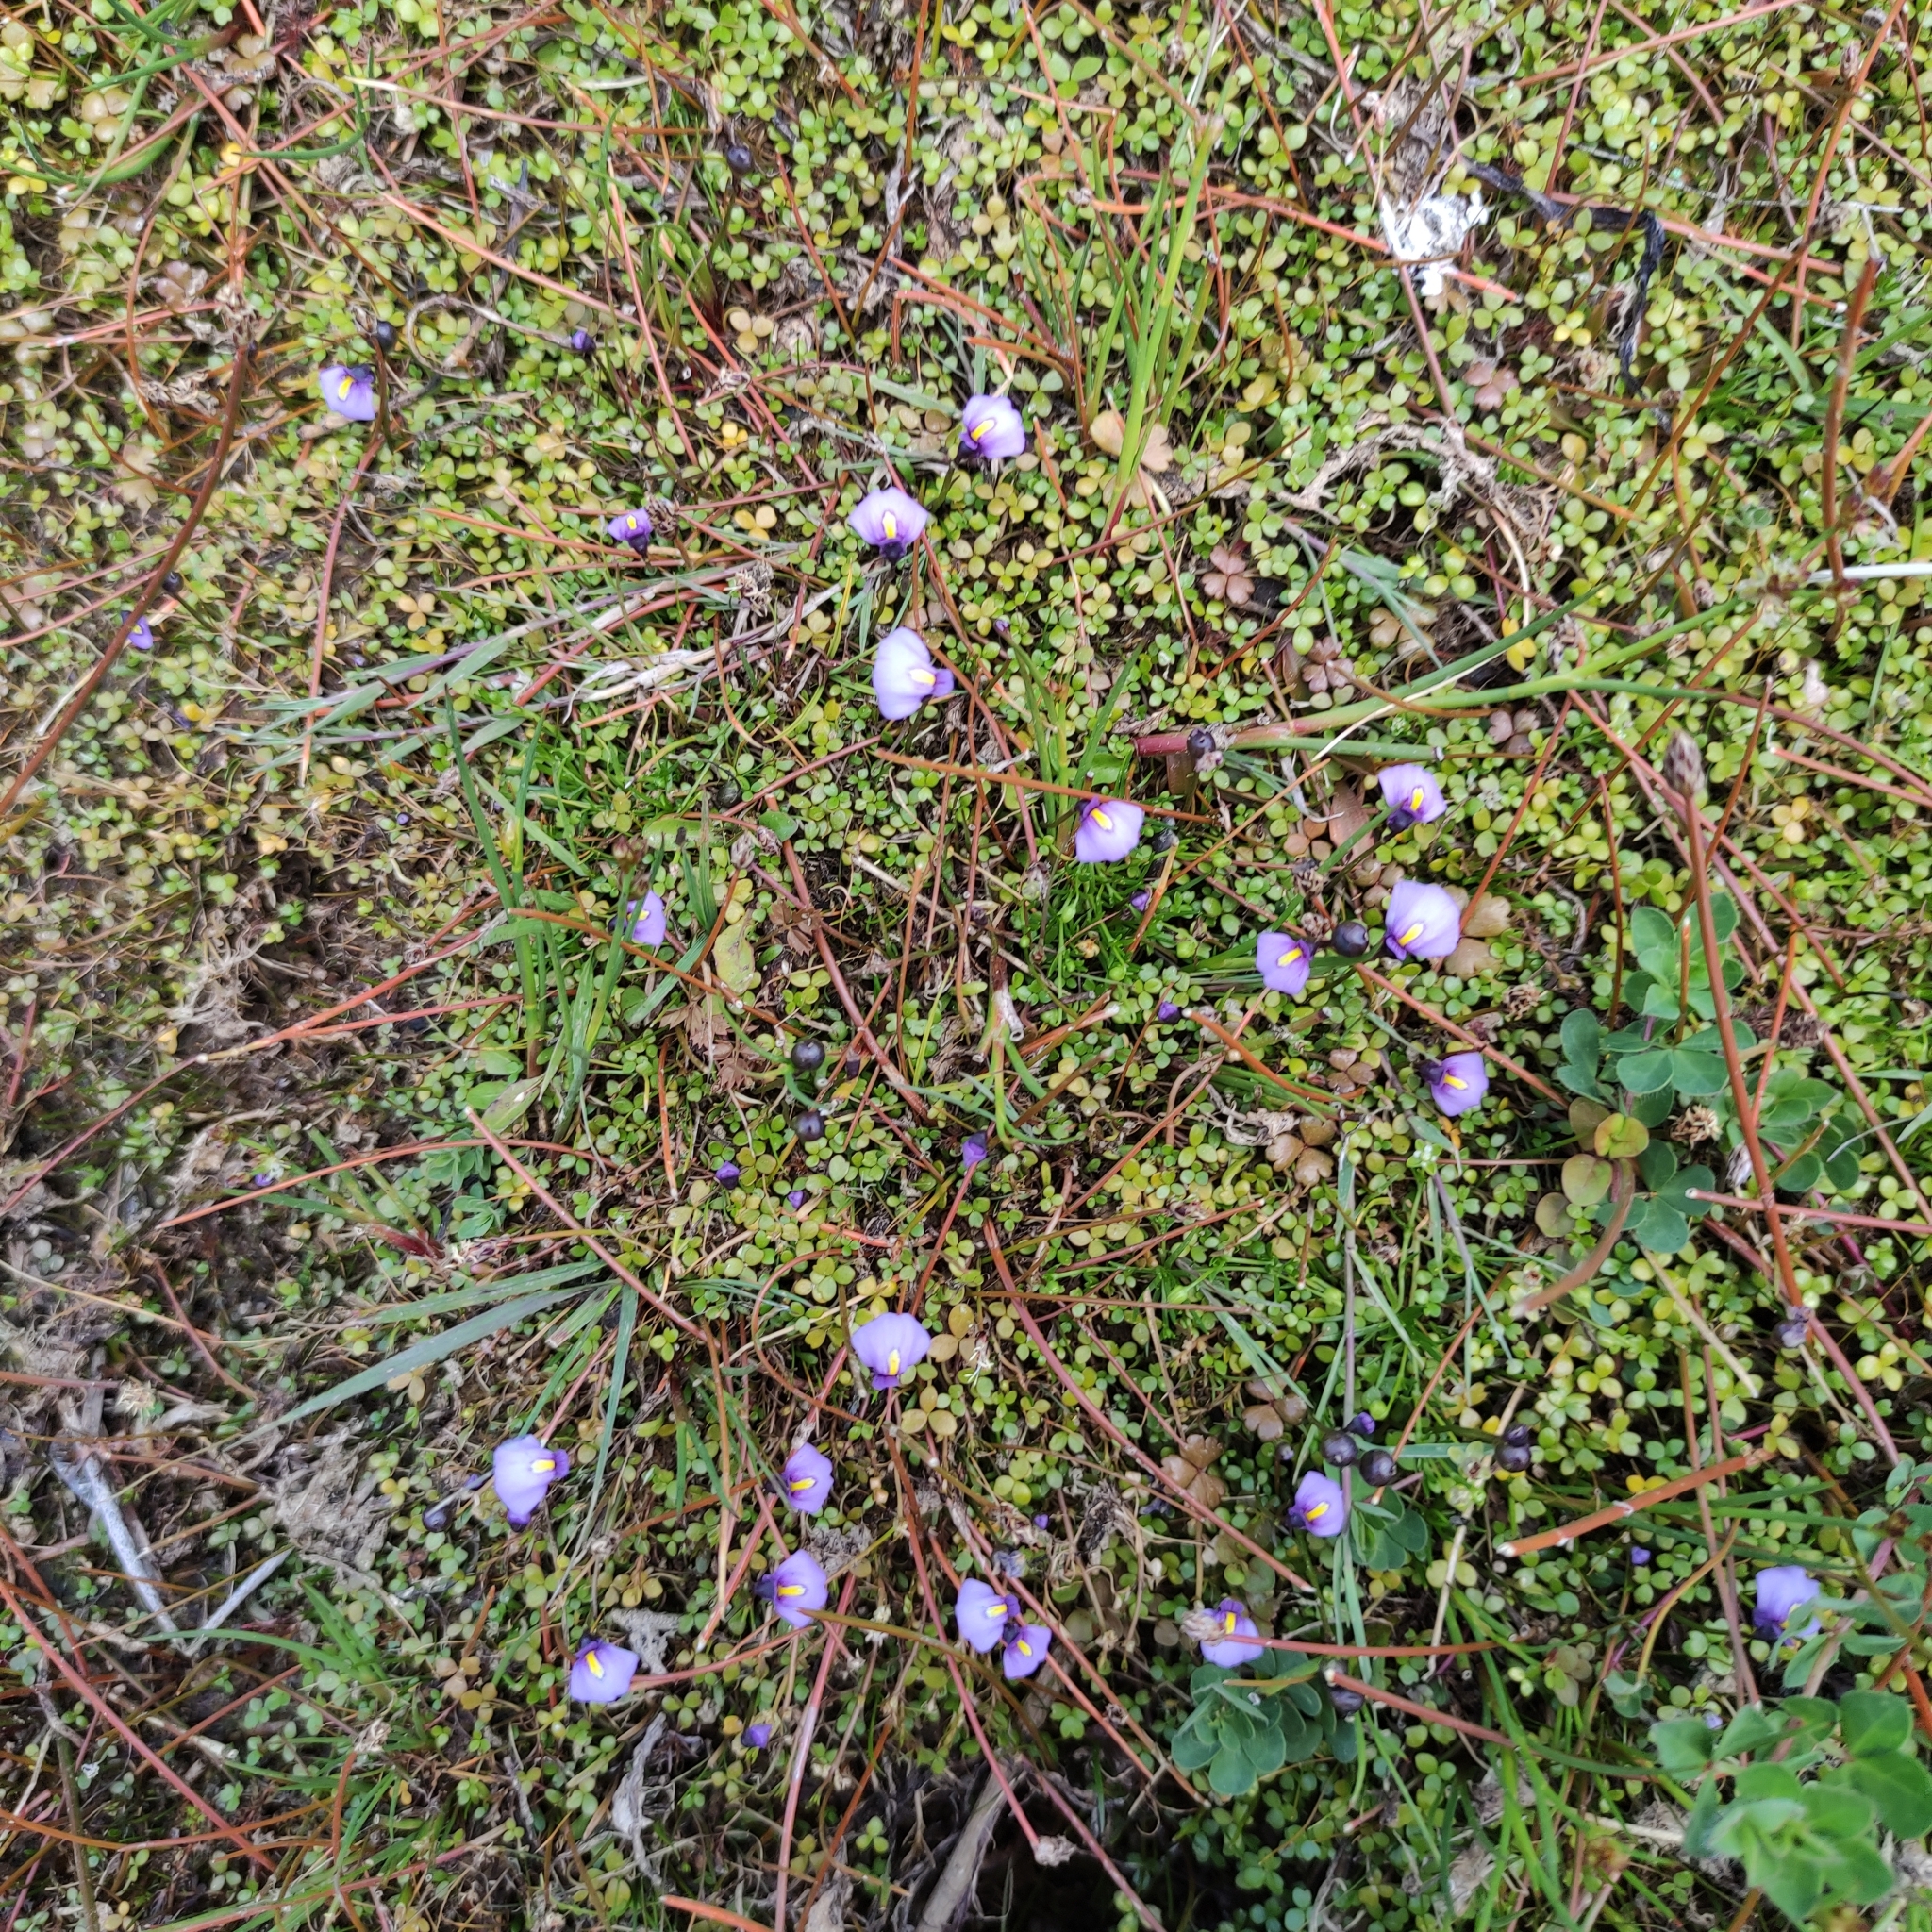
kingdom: Plantae
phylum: Tracheophyta
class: Magnoliopsida
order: Lamiales
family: Lentibulariaceae
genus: Utricularia
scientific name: Utricularia dichotoma
